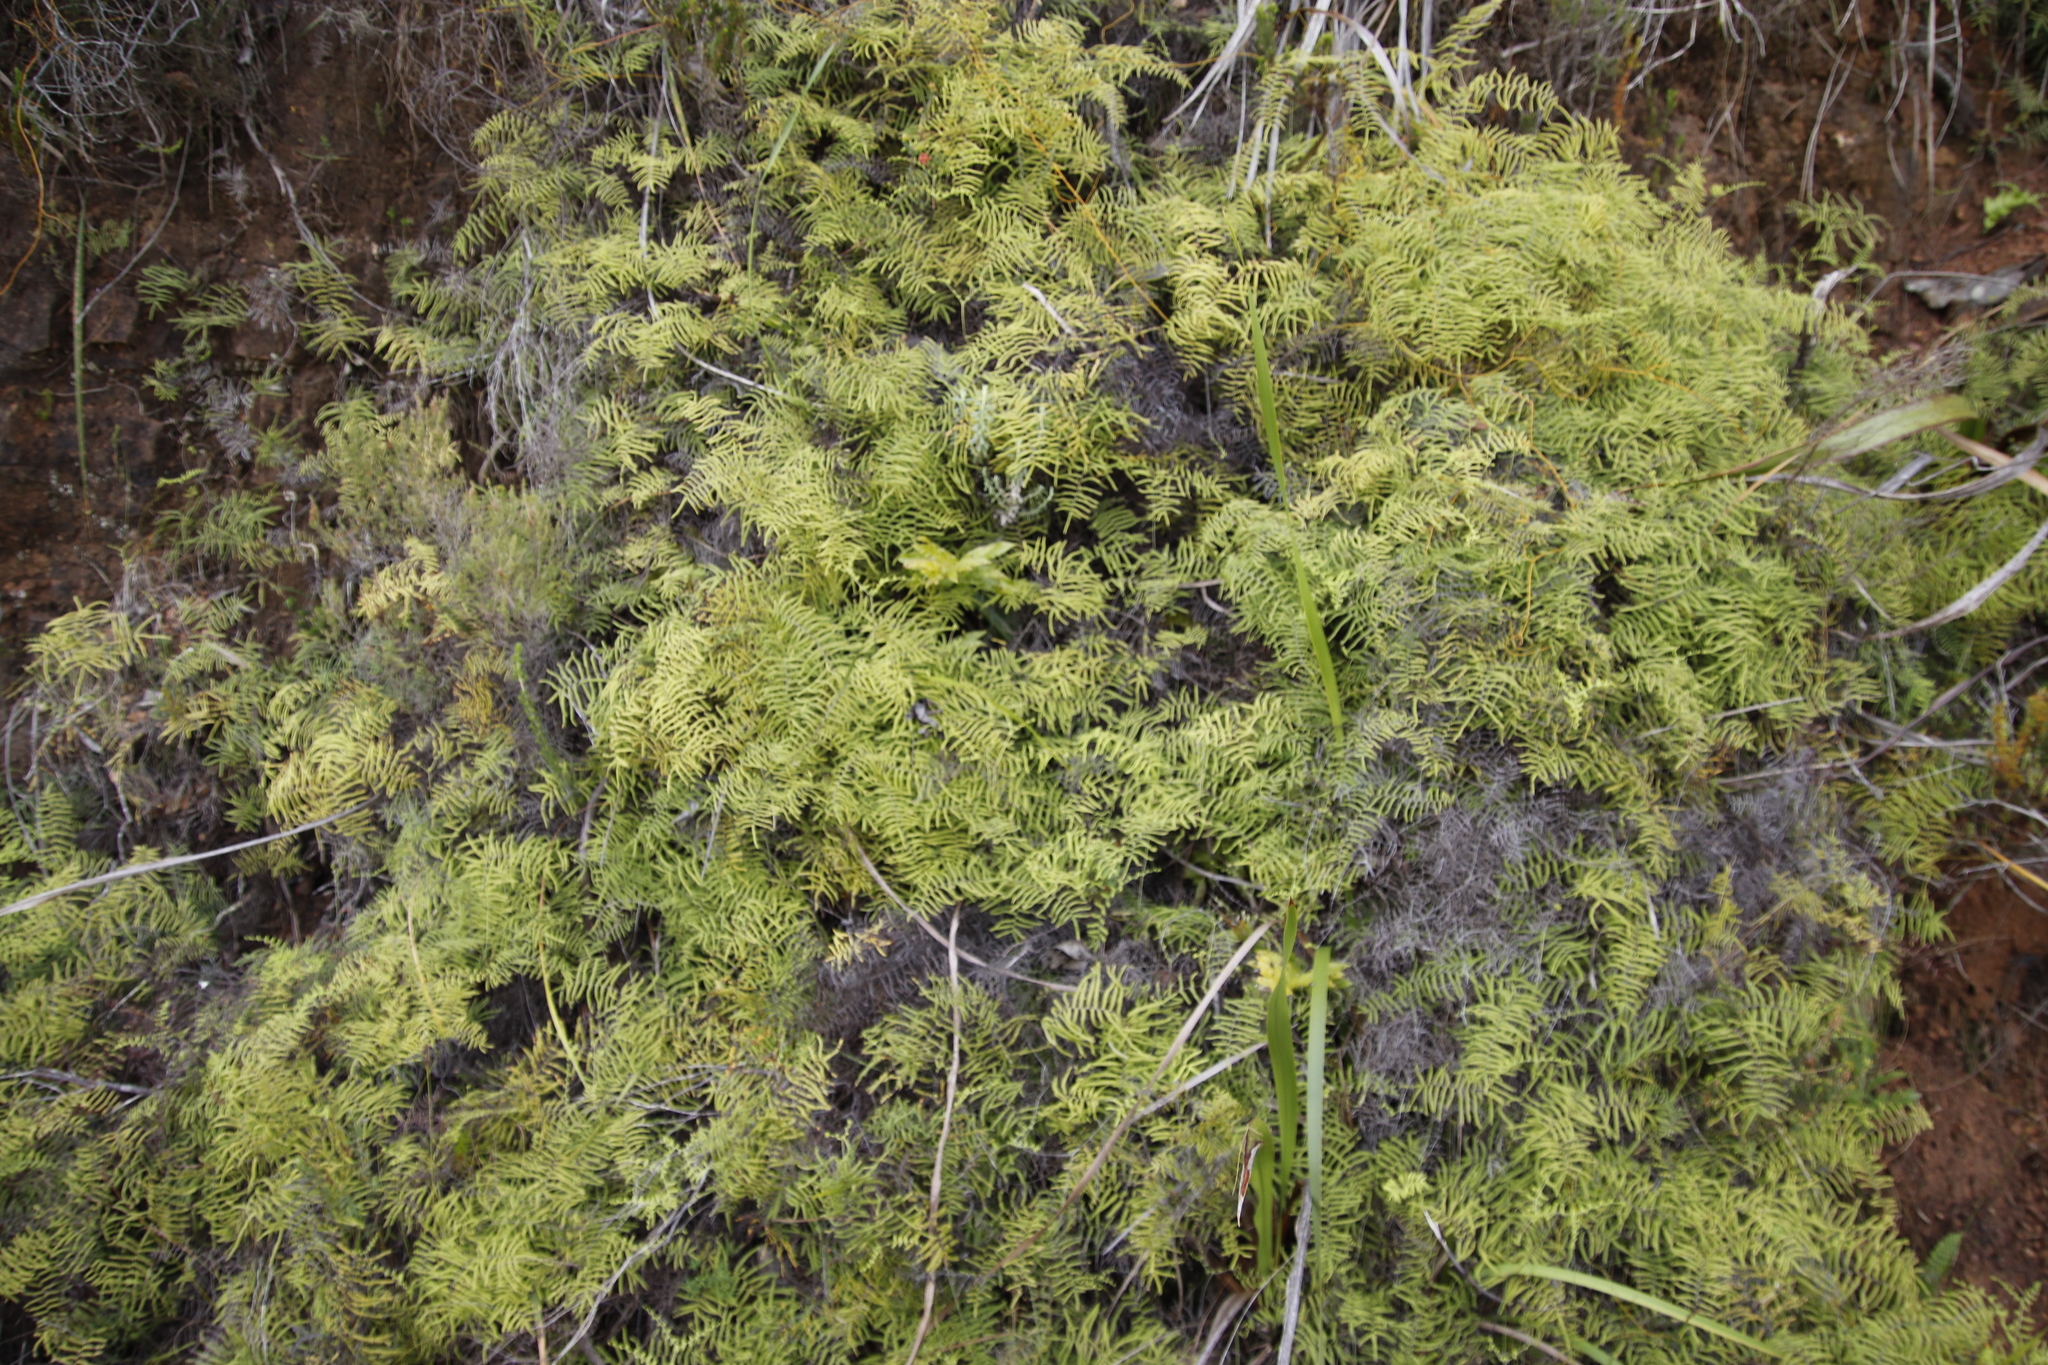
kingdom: Plantae
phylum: Tracheophyta
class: Polypodiopsida
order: Gleicheniales
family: Gleicheniaceae
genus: Gleichenia
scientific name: Gleichenia polypodioides
